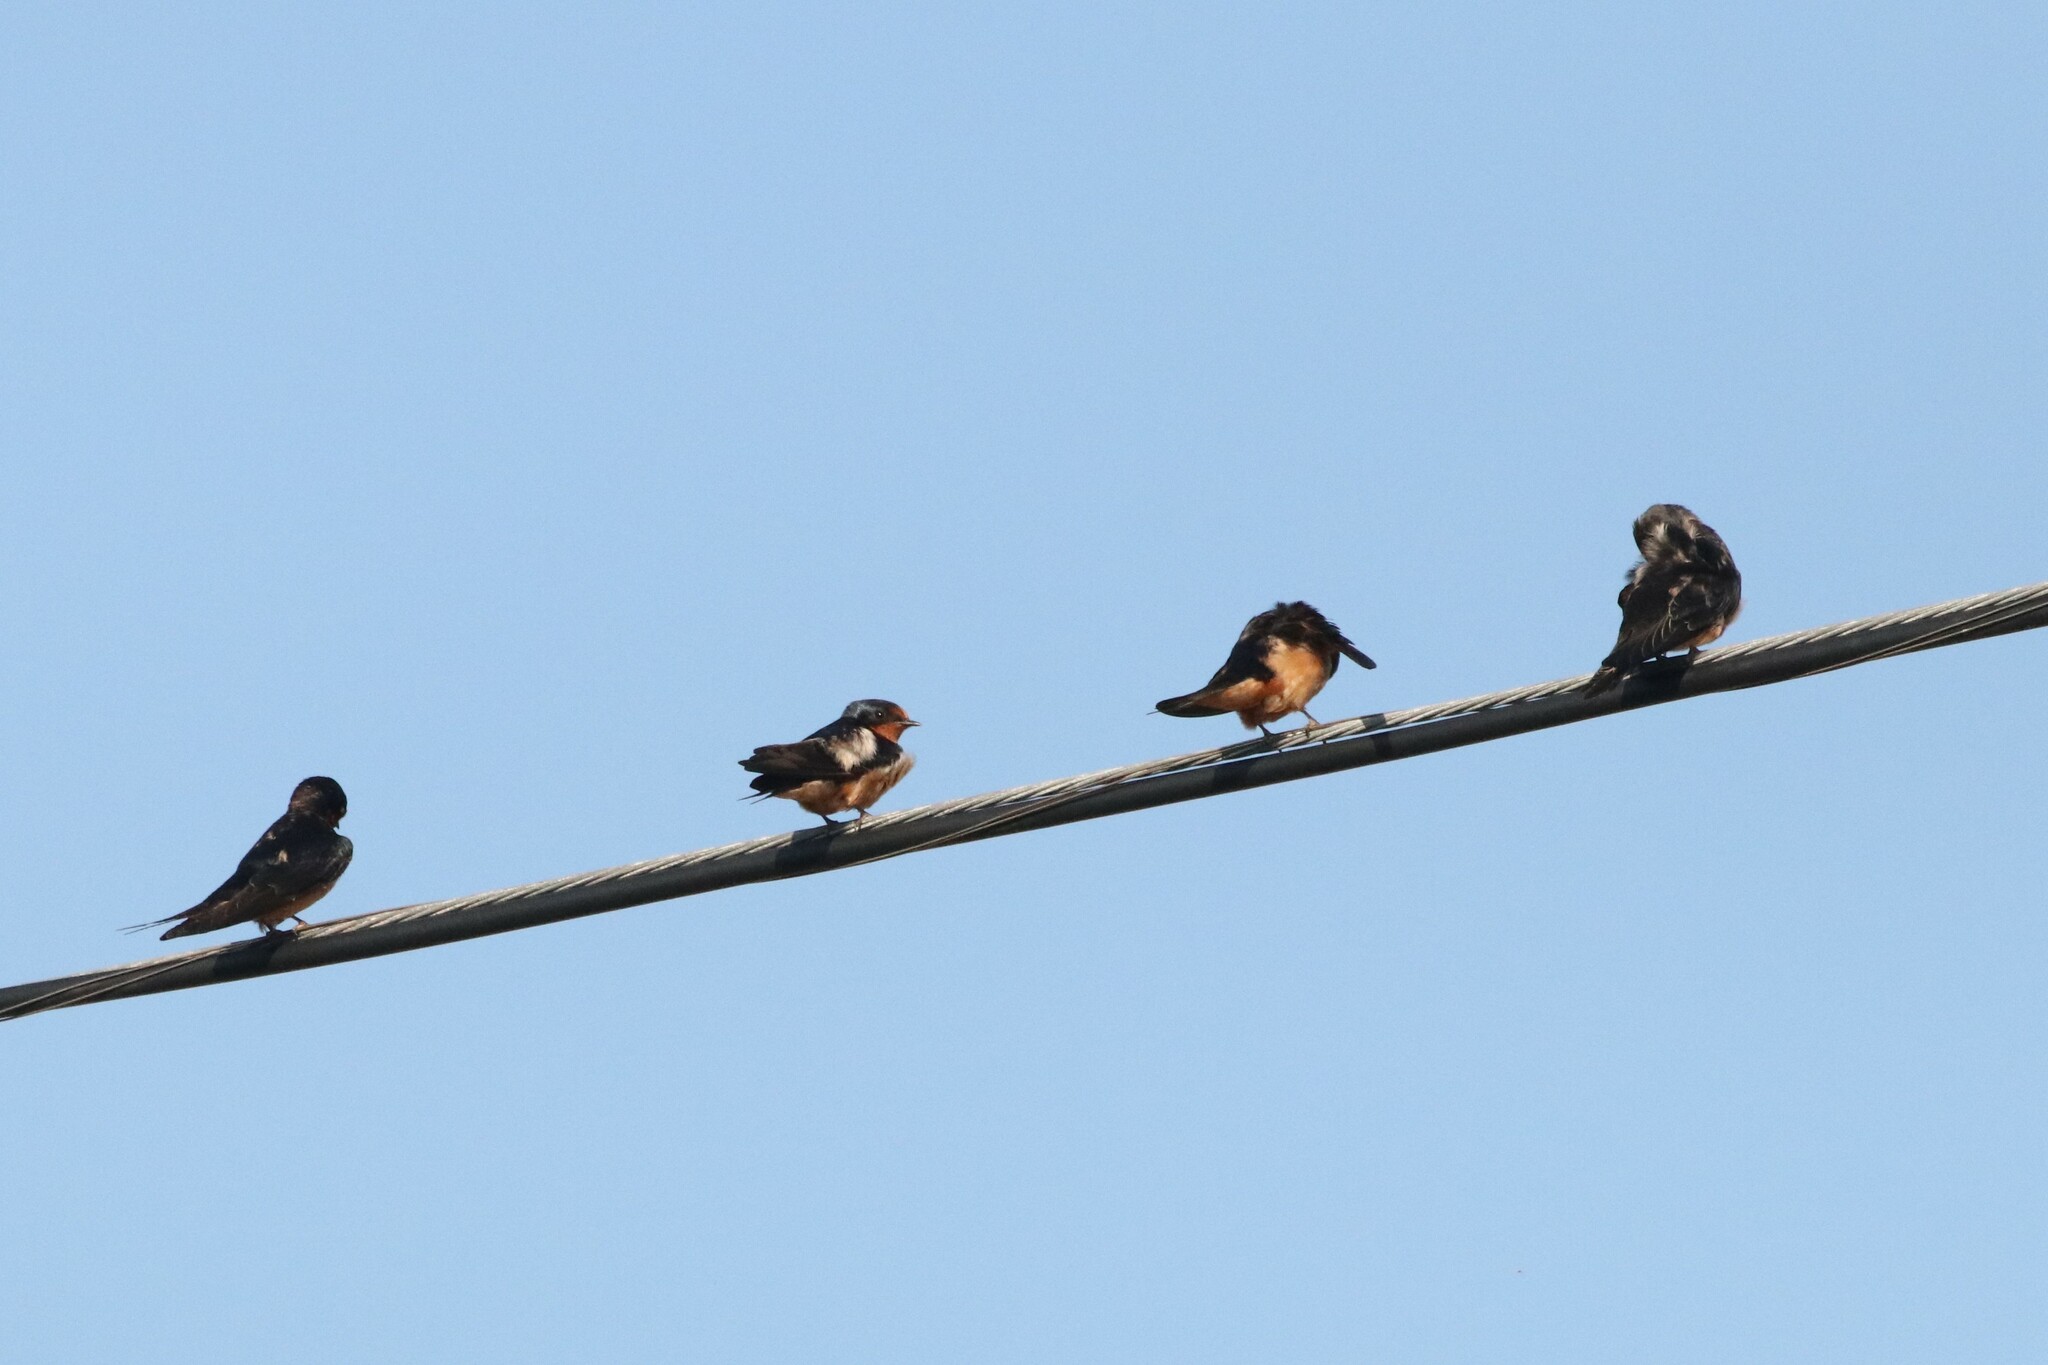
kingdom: Animalia
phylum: Chordata
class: Aves
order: Passeriformes
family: Hirundinidae
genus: Hirundo
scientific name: Hirundo rustica
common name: Barn swallow
